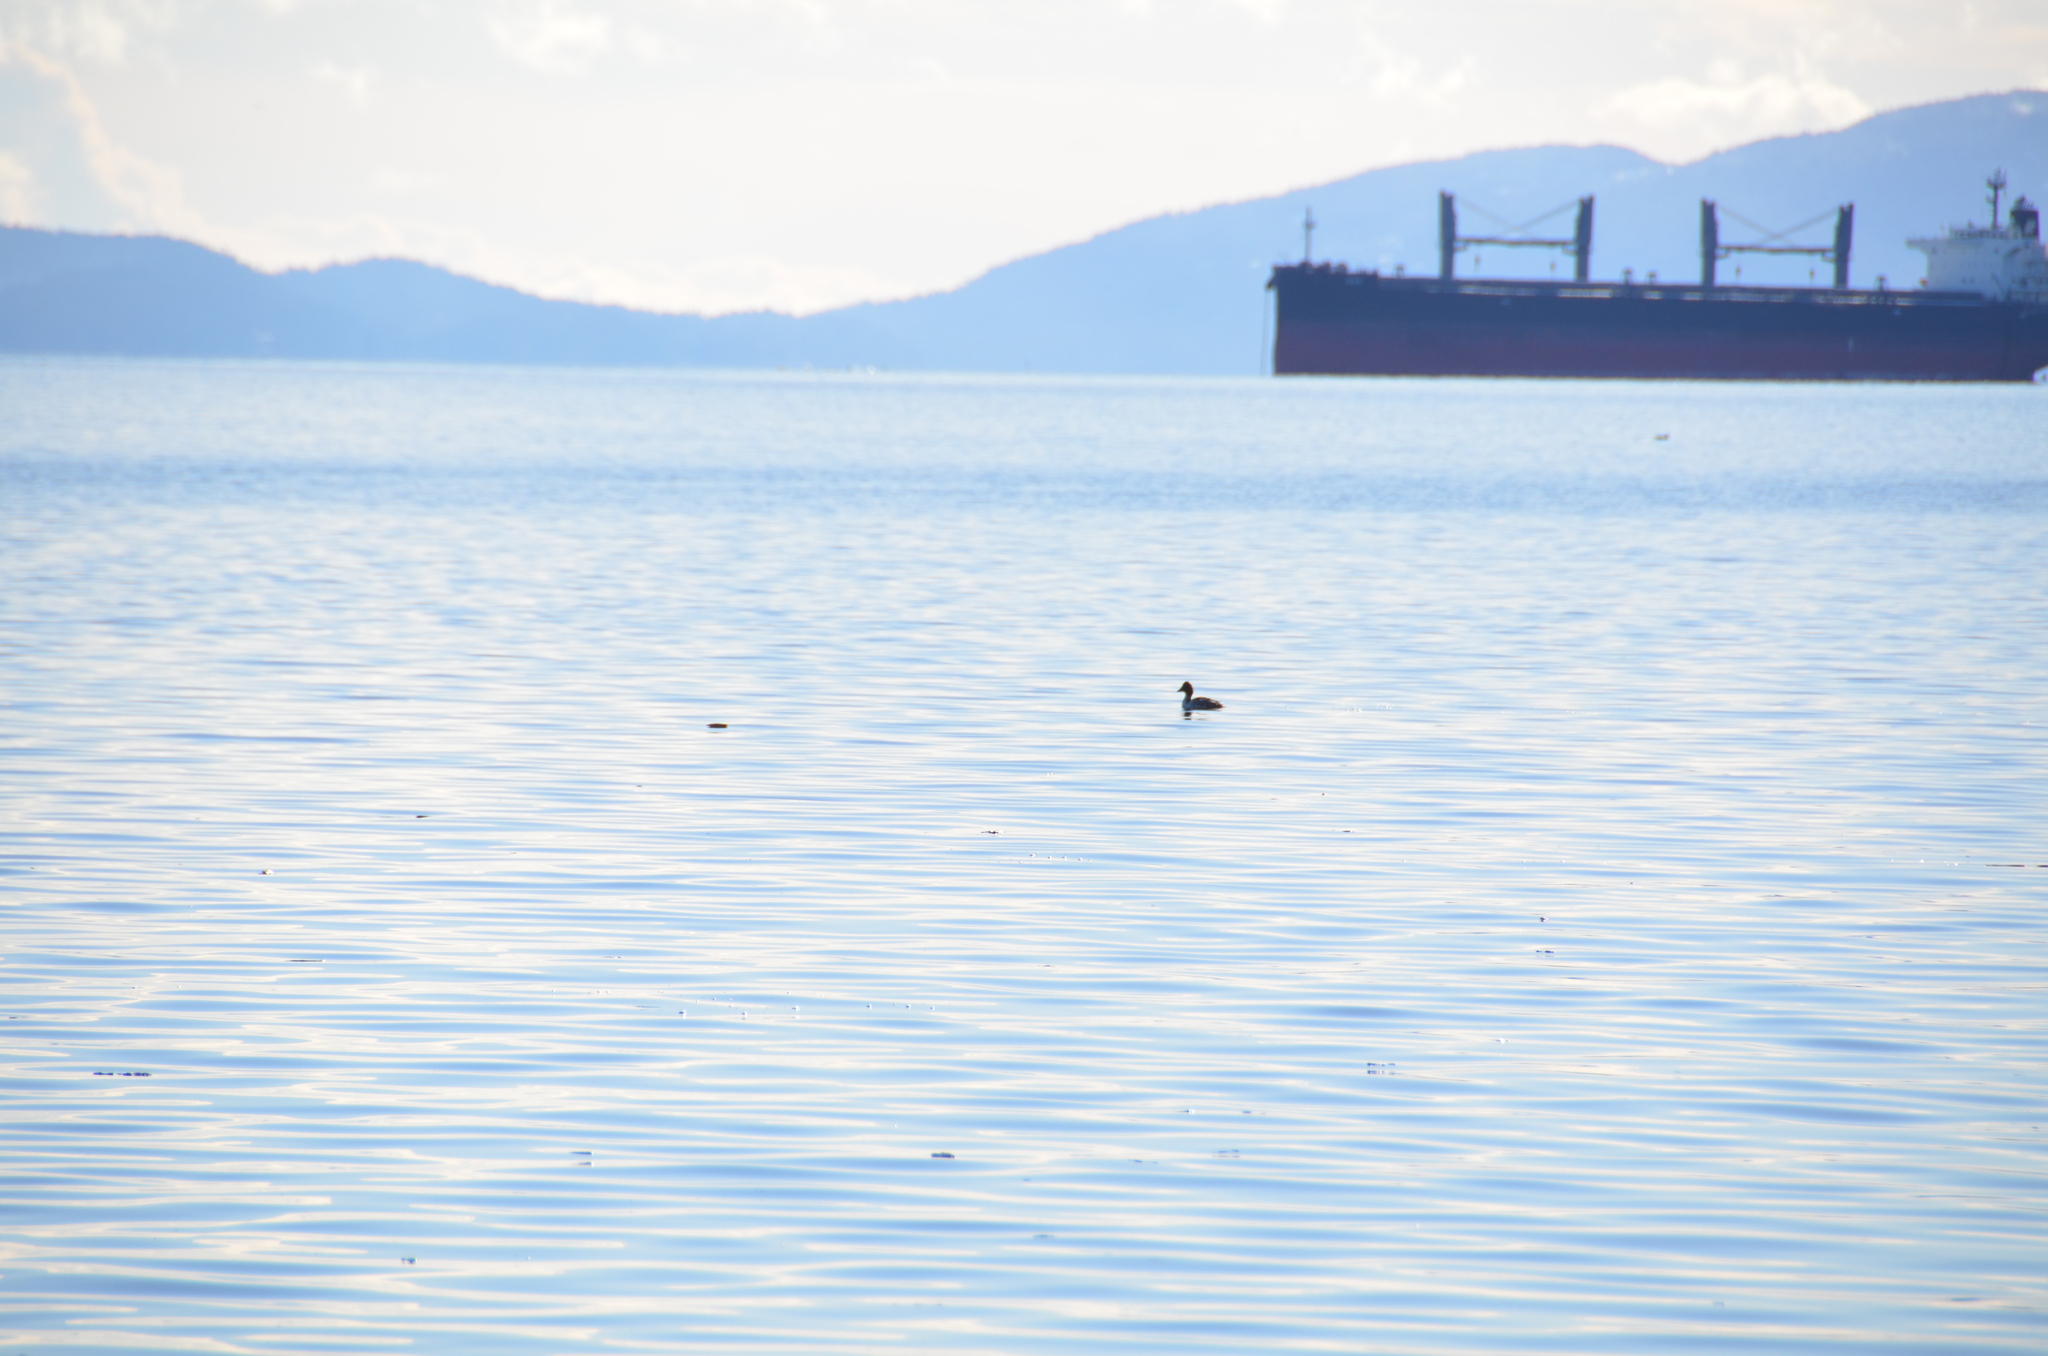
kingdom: Animalia
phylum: Chordata
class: Aves
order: Anseriformes
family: Anatidae
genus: Bucephala
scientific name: Bucephala clangula
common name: Common goldeneye
